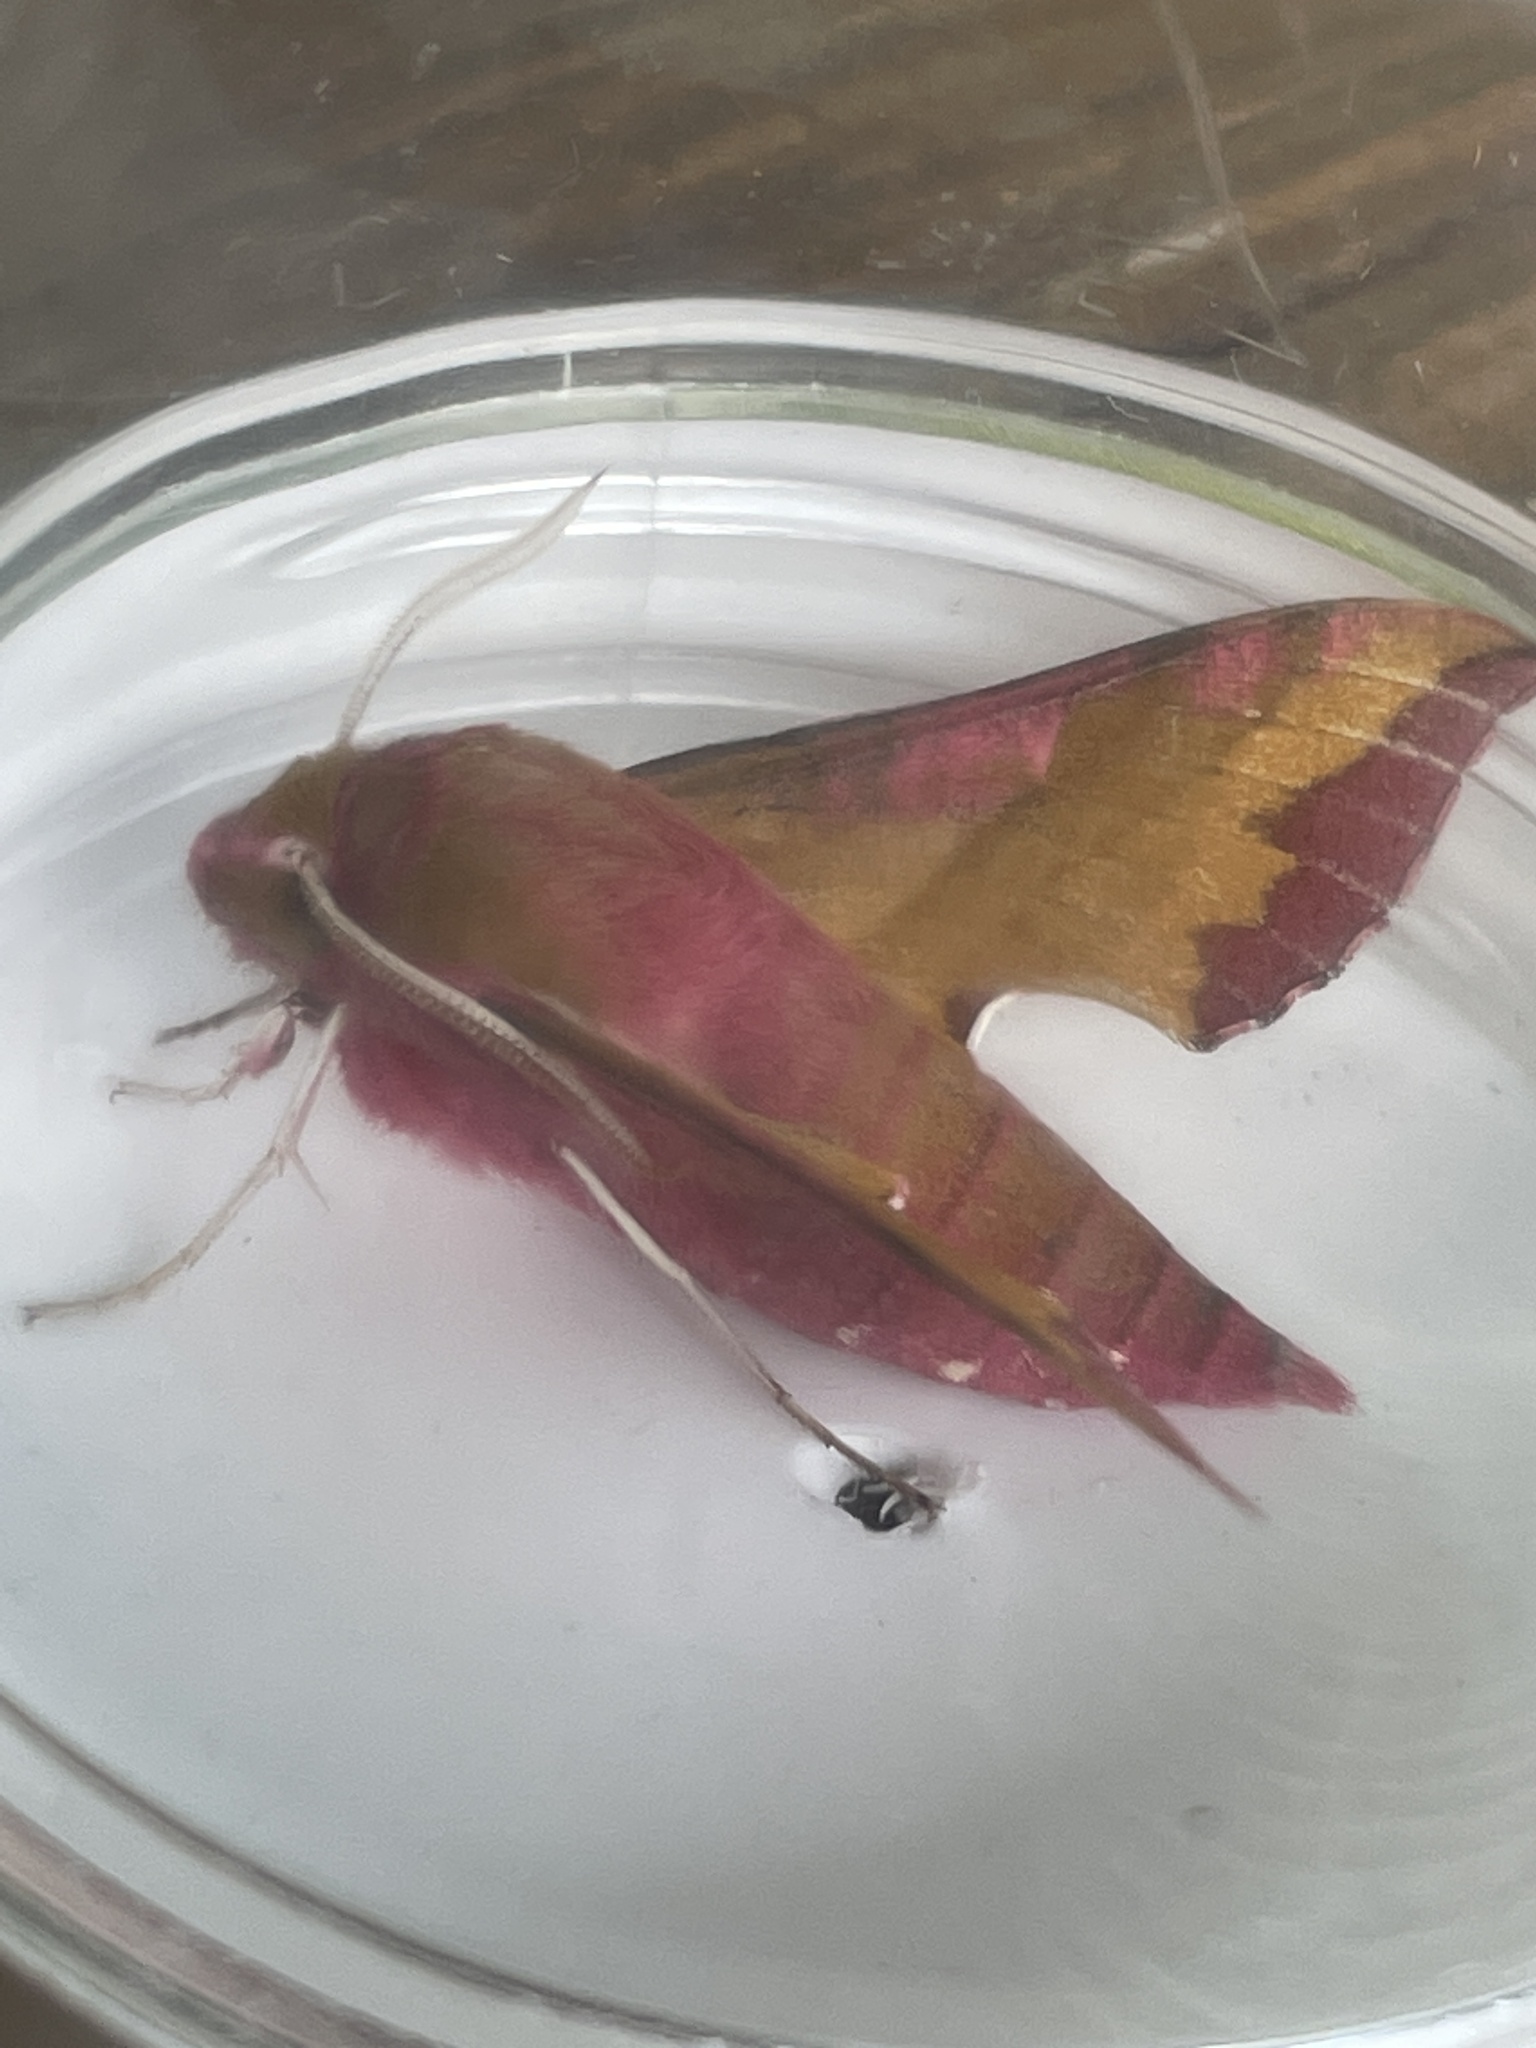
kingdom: Animalia
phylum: Arthropoda
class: Insecta
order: Lepidoptera
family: Sphingidae
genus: Deilephila
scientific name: Deilephila porcellus
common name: Small elephant hawk-moth
